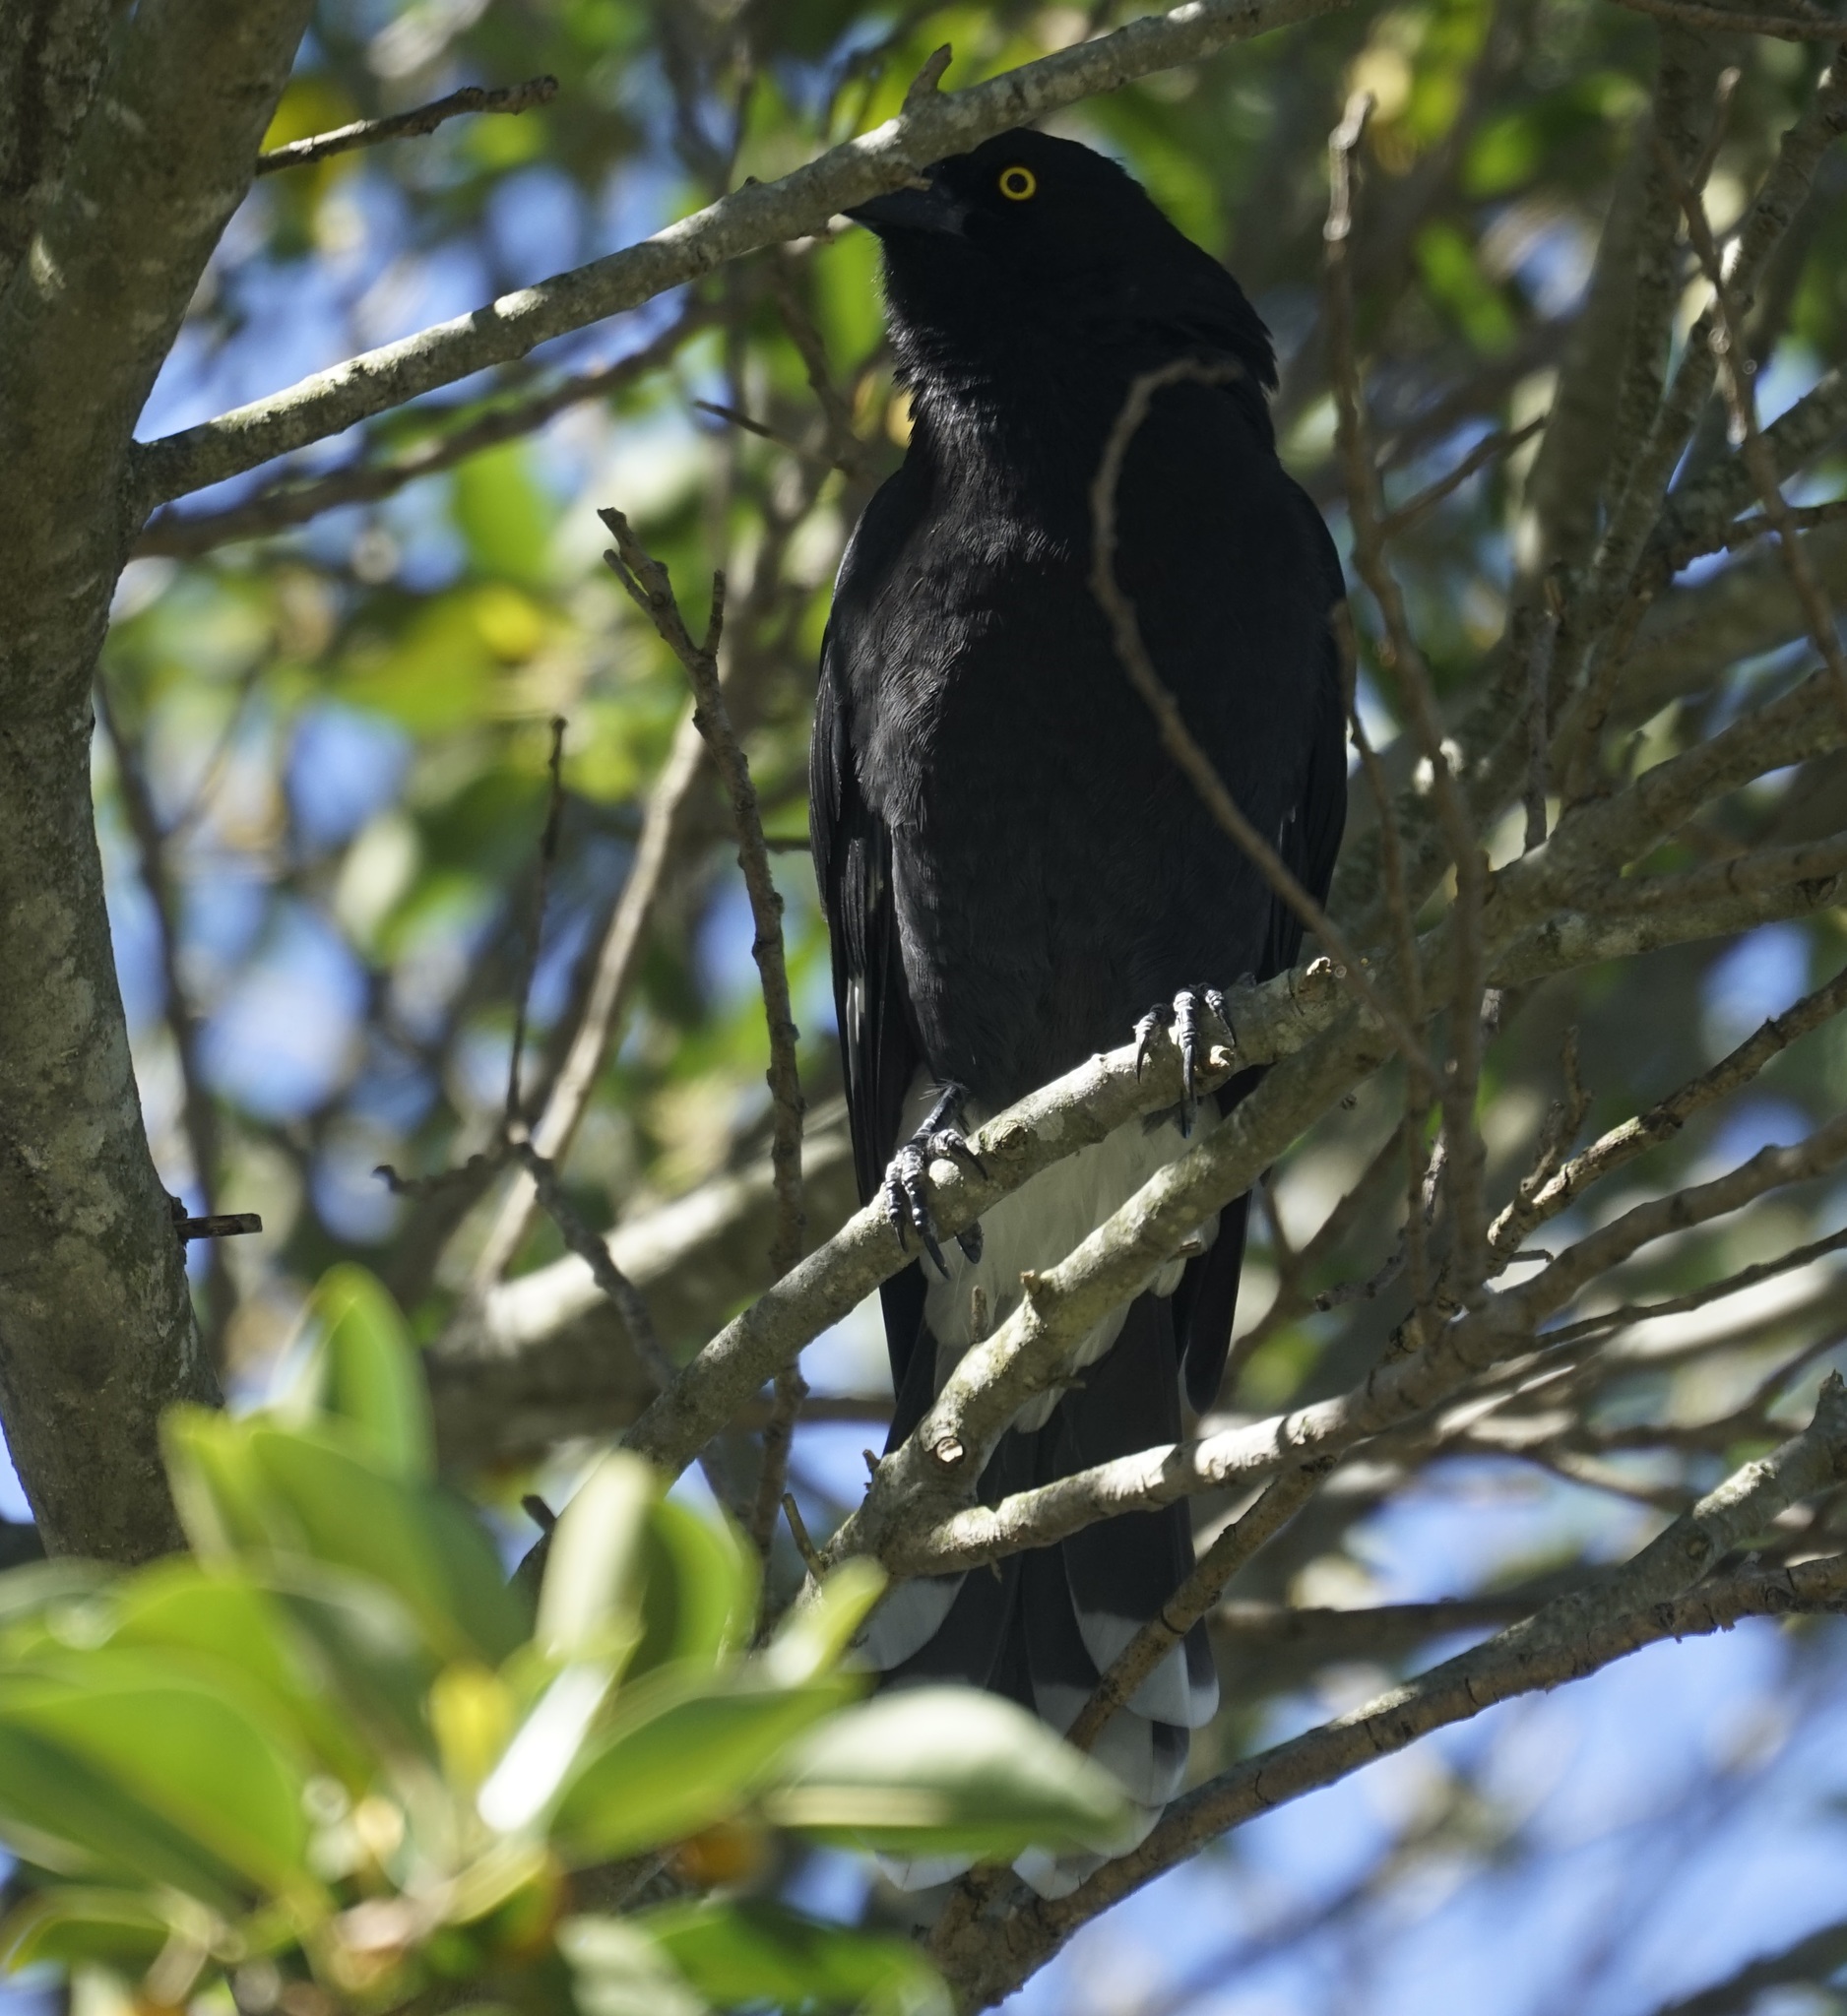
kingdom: Animalia
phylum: Chordata
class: Aves
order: Passeriformes
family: Cracticidae
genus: Strepera
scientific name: Strepera graculina
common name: Pied currawong
